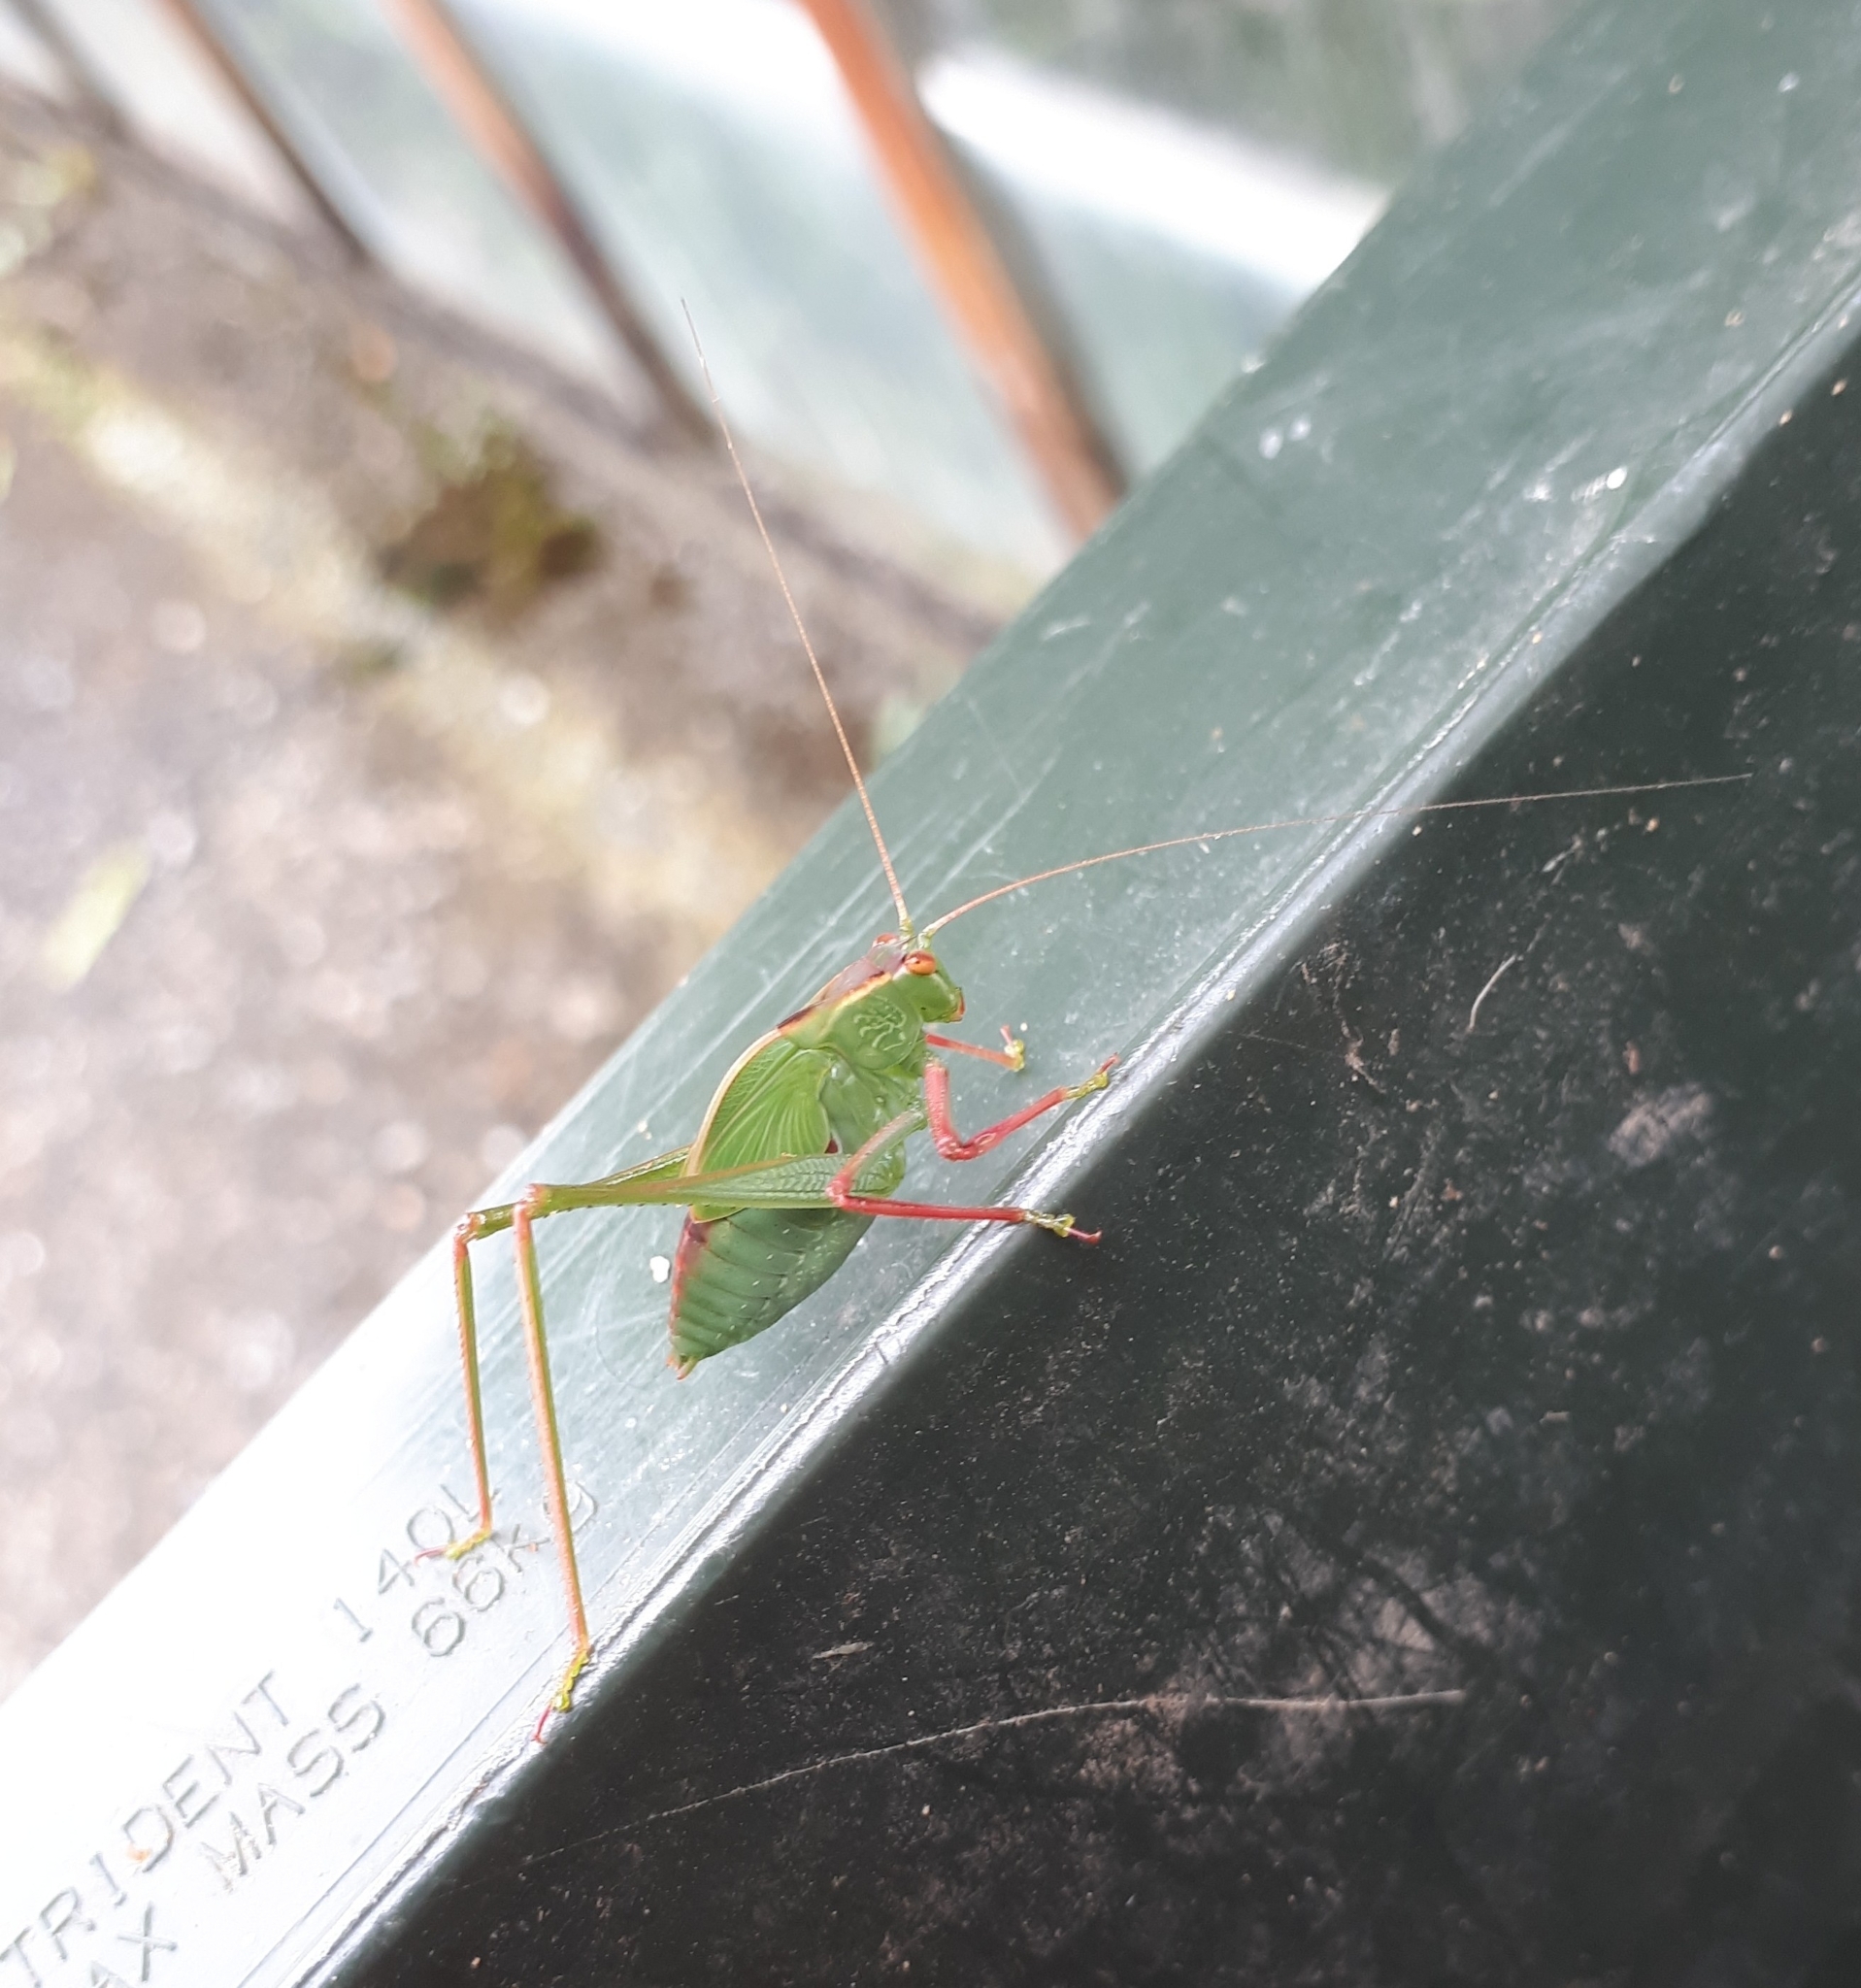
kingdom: Animalia
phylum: Arthropoda
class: Insecta
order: Orthoptera
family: Tettigoniidae
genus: Caedicia
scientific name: Caedicia simplex
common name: Common garden katydid
